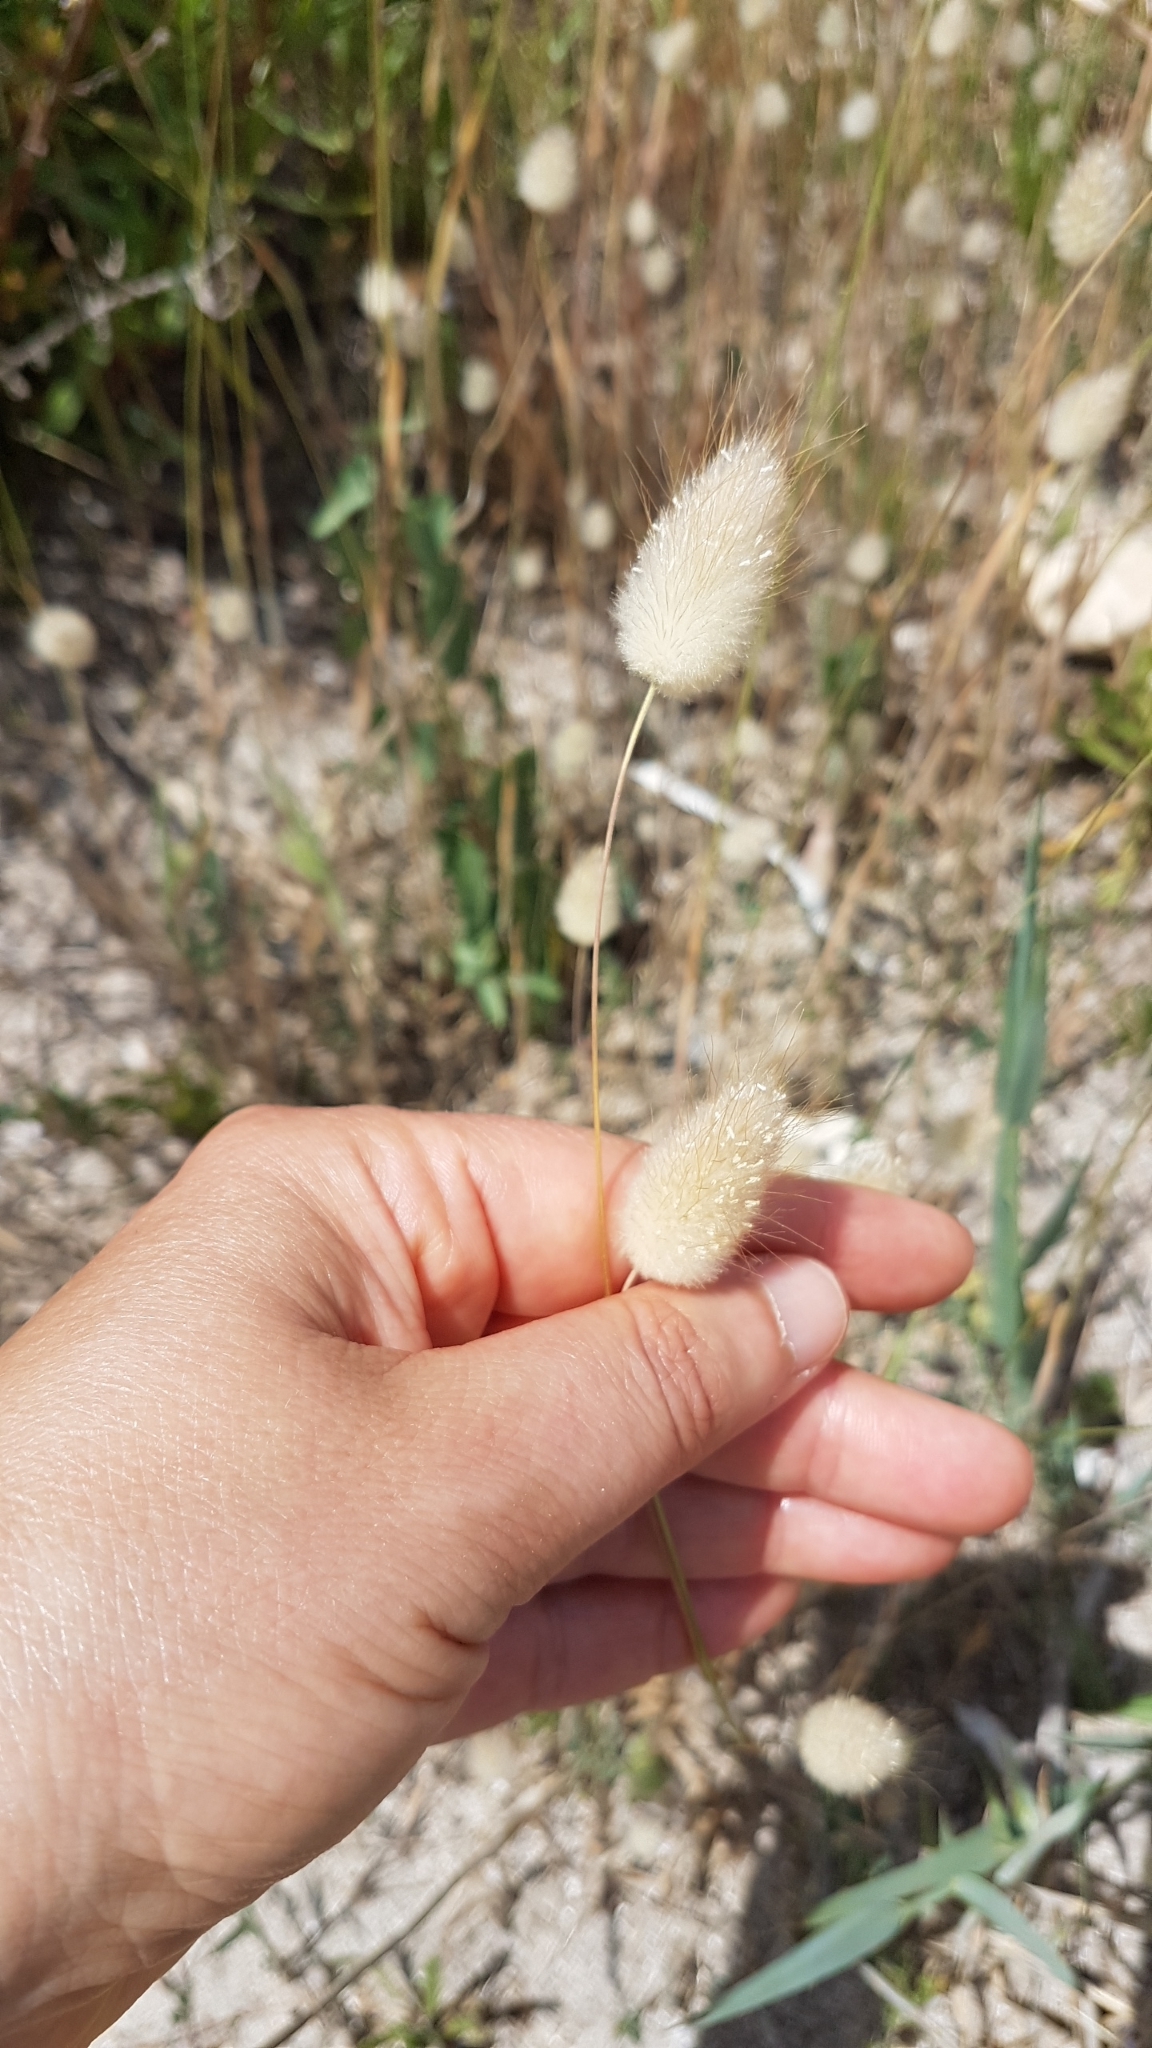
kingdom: Plantae
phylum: Tracheophyta
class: Liliopsida
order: Poales
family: Poaceae
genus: Lagurus
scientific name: Lagurus ovatus
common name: Hare's-tail
